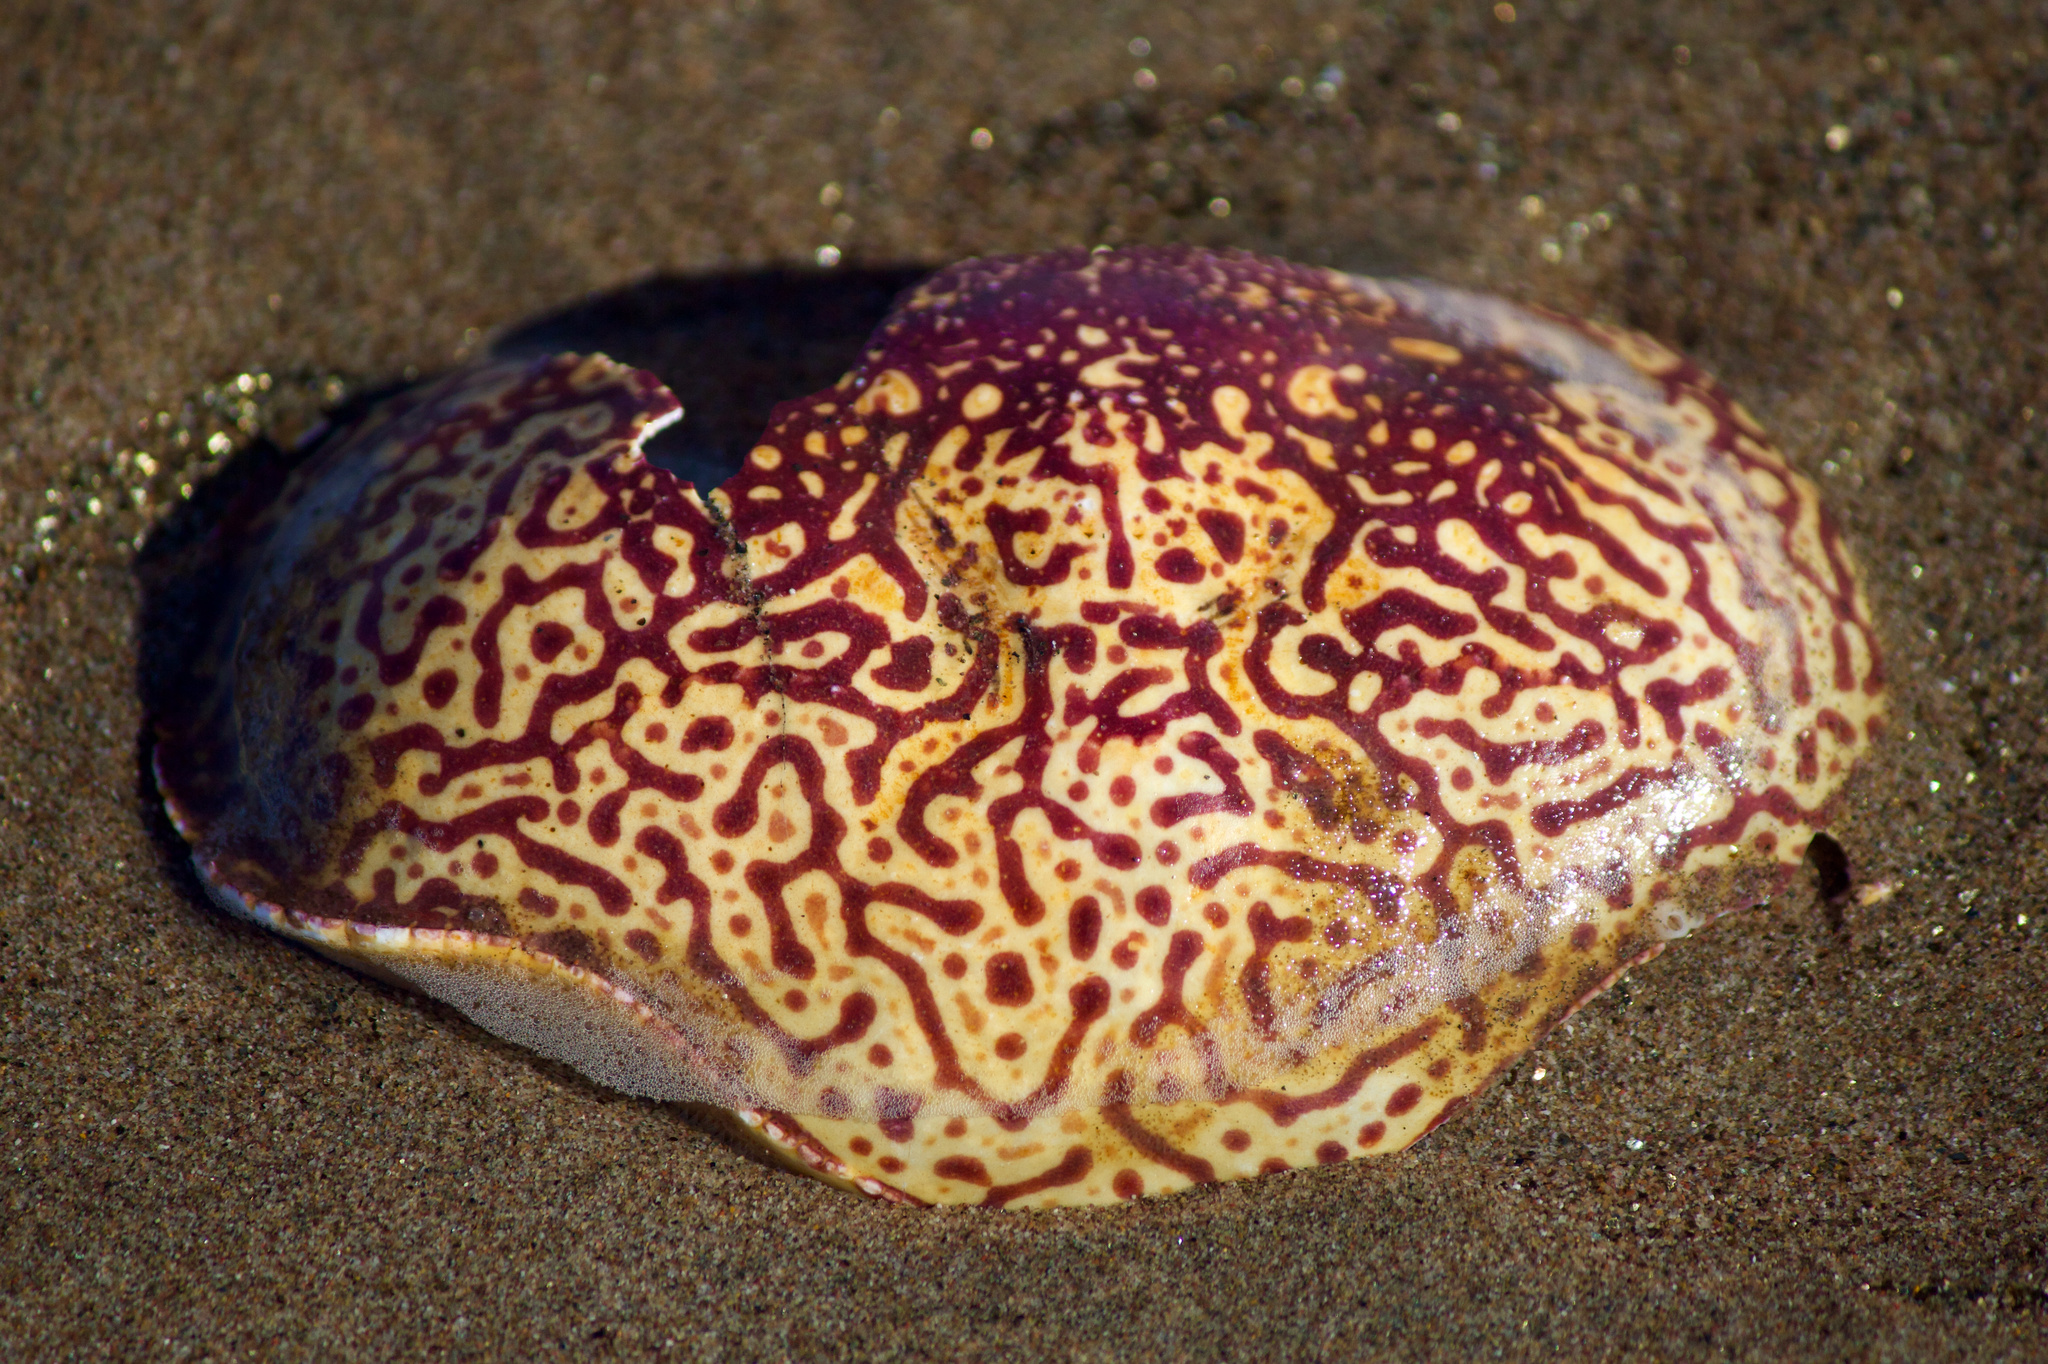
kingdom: Animalia
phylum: Arthropoda
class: Malacostraca
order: Decapoda
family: Aethridae
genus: Hepatus
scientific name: Hepatus chiliensis
